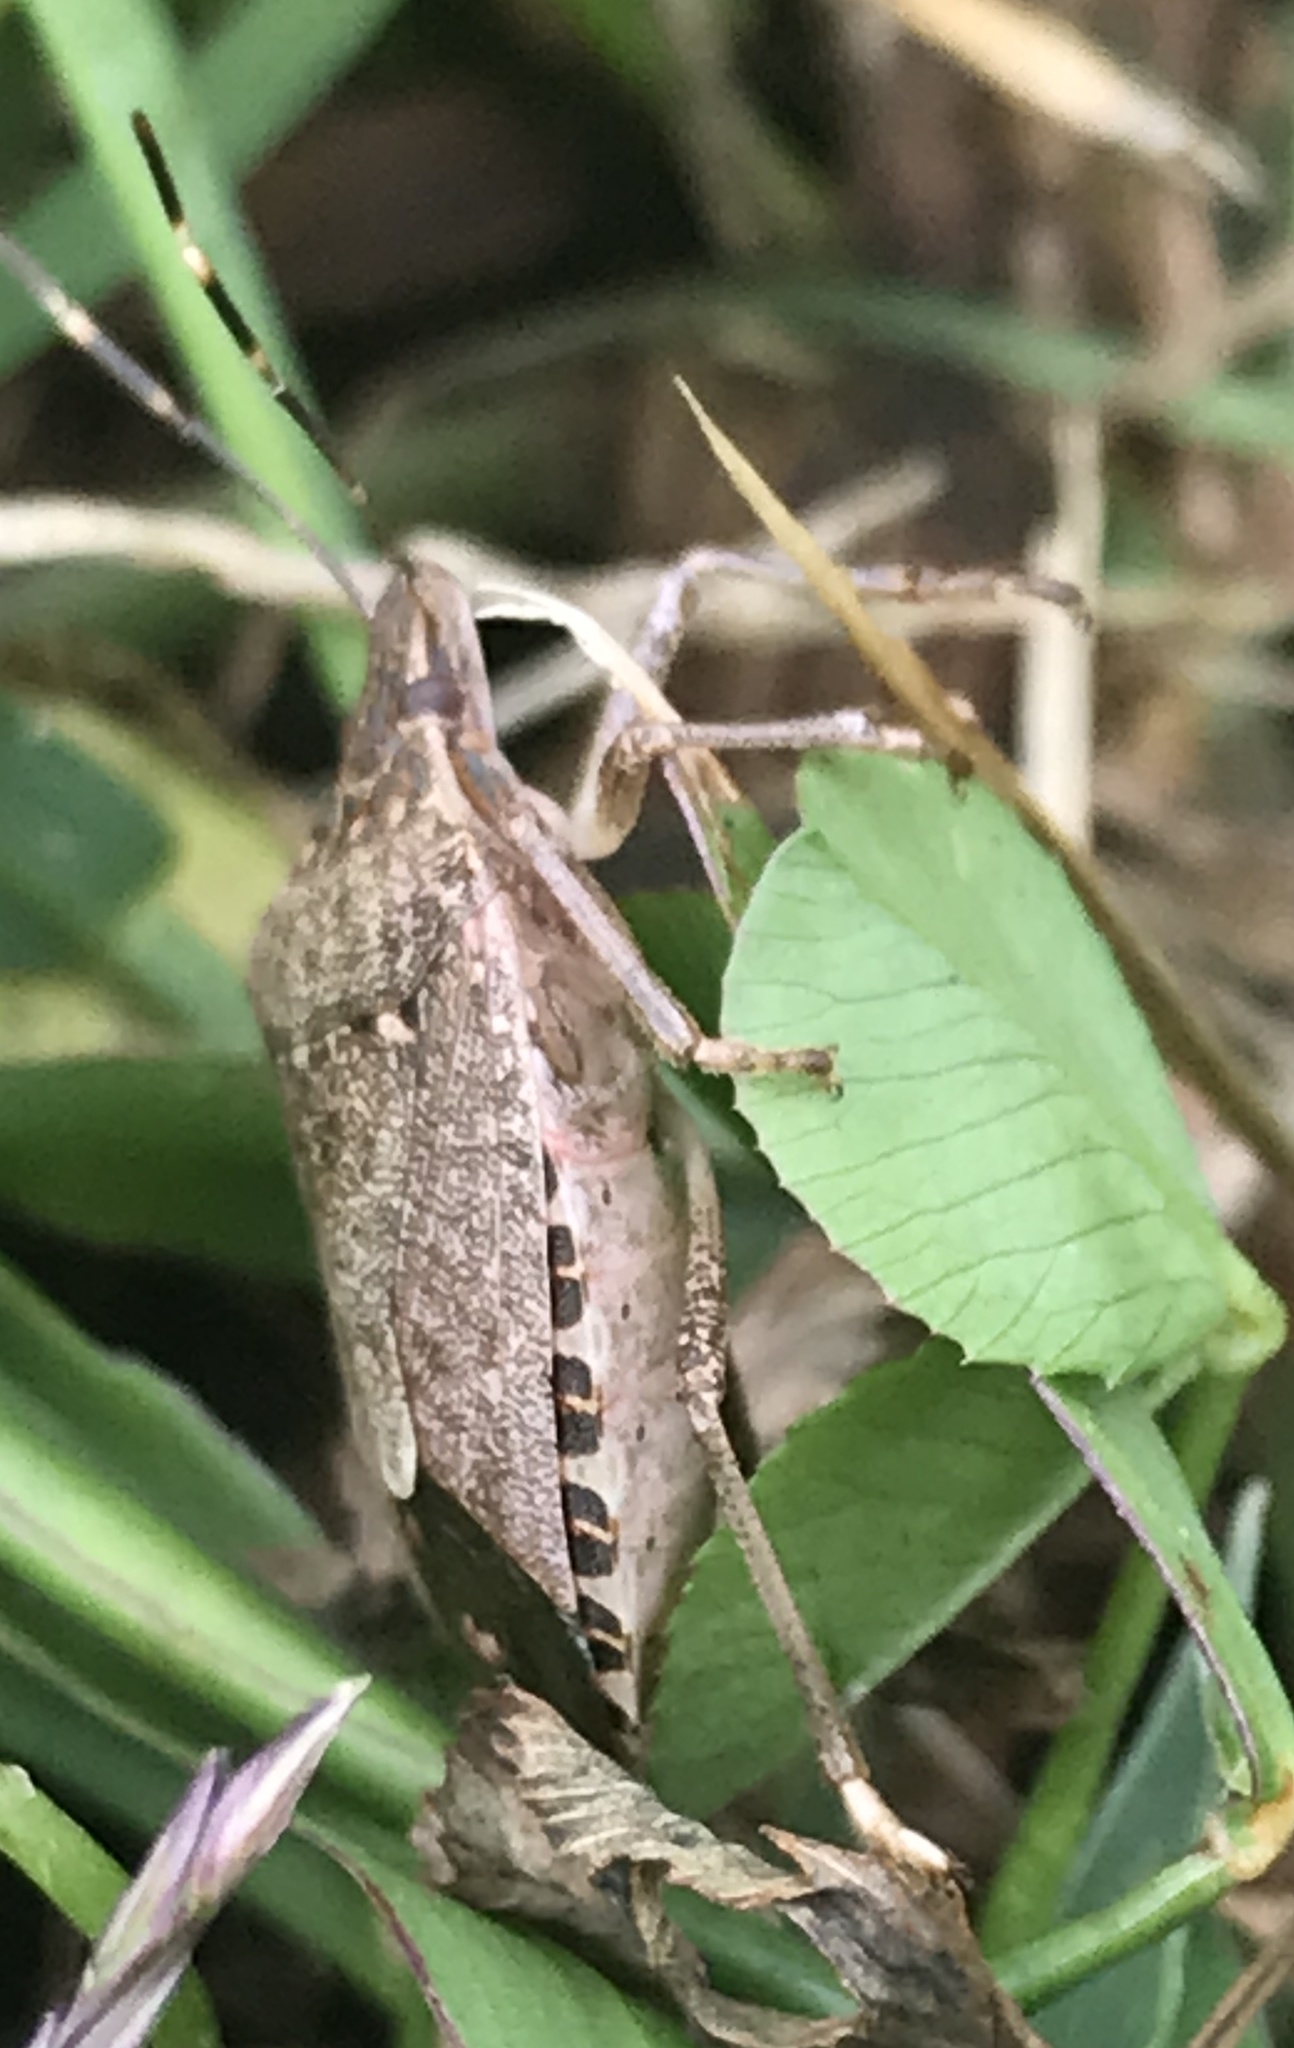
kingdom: Animalia
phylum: Arthropoda
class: Insecta
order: Hemiptera
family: Pentatomidae
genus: Halyomorpha
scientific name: Halyomorpha halys
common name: Brown marmorated stink bug
